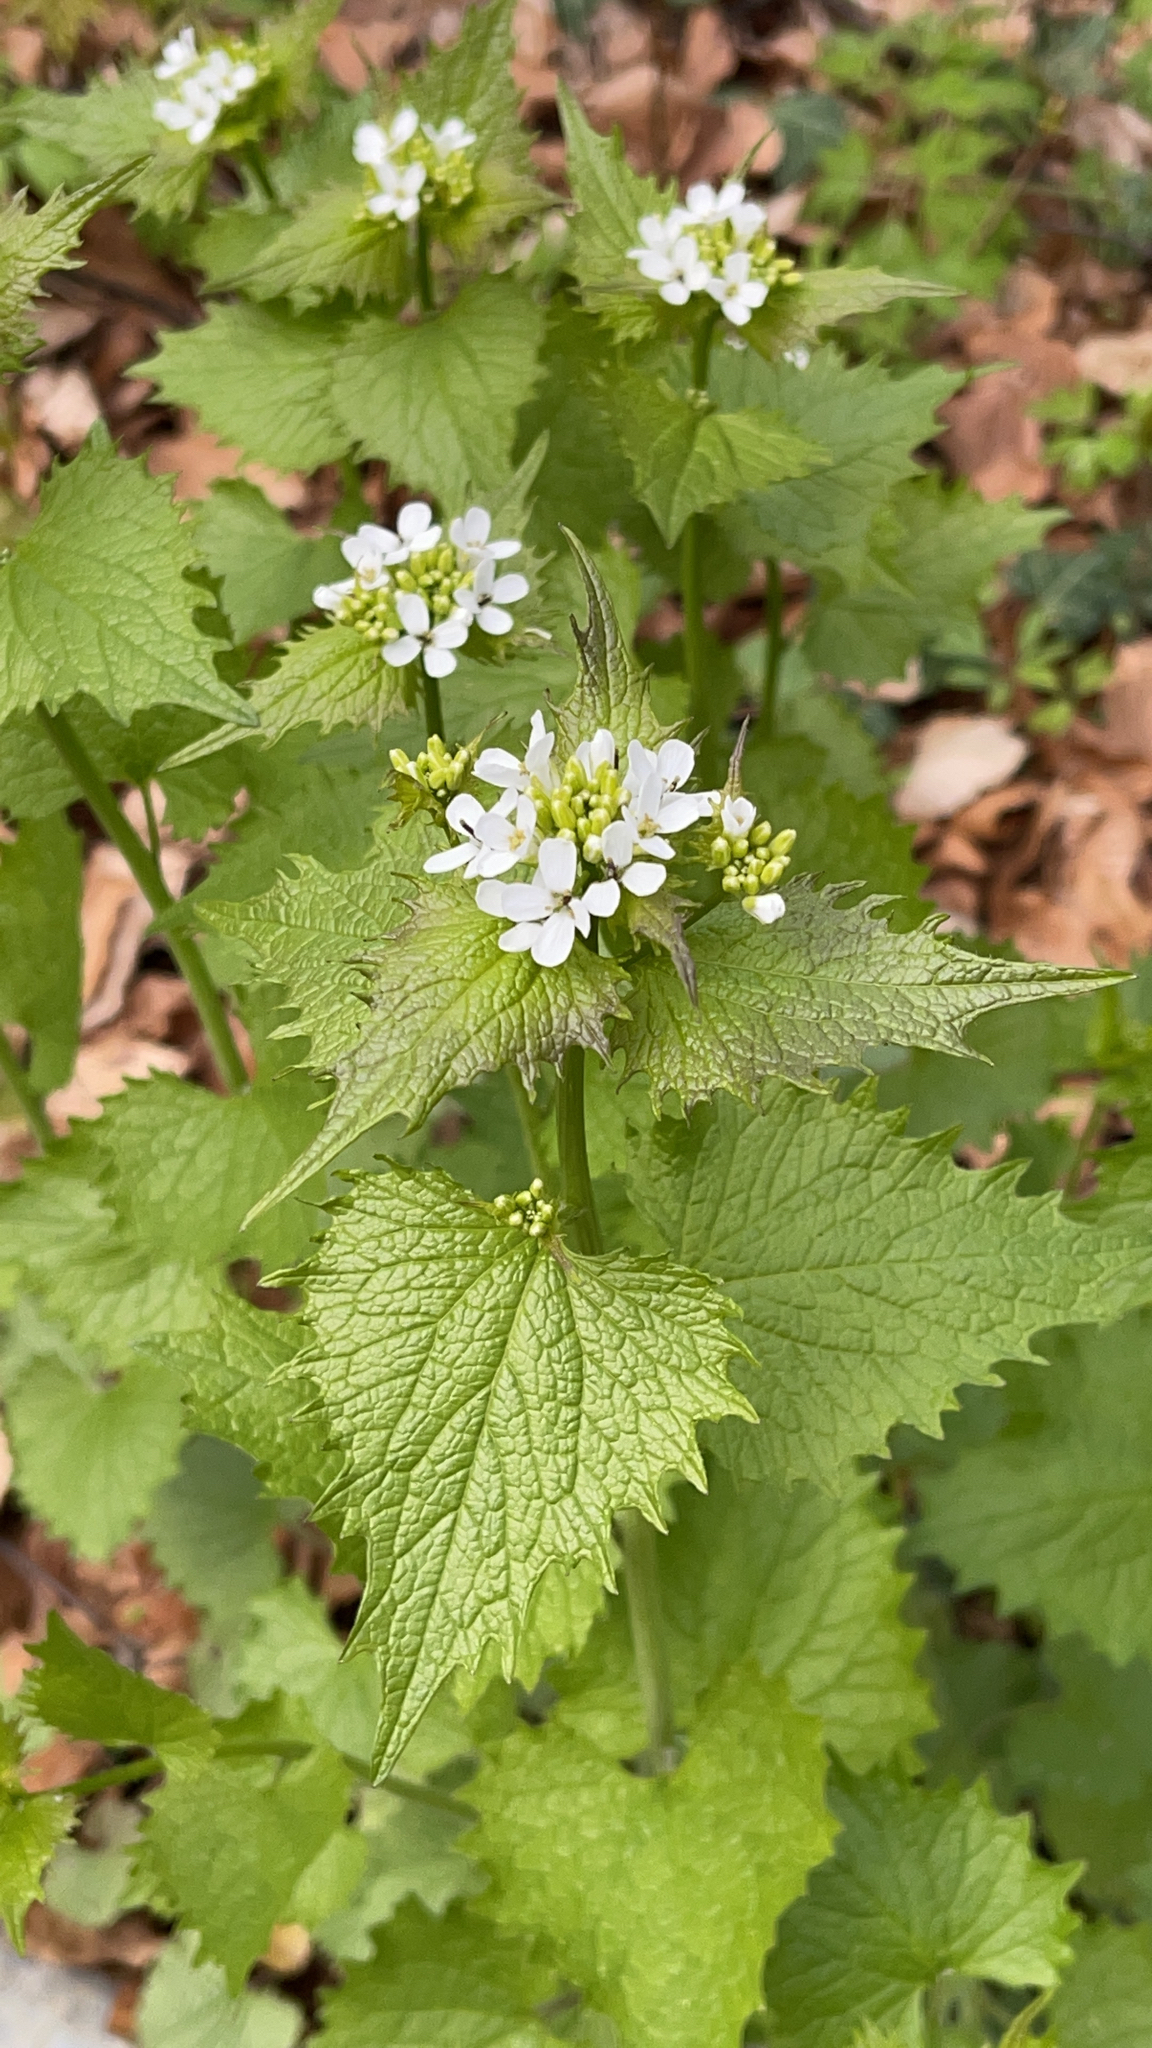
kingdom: Plantae
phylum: Tracheophyta
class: Magnoliopsida
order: Brassicales
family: Brassicaceae
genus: Alliaria
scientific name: Alliaria petiolata
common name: Garlic mustard
